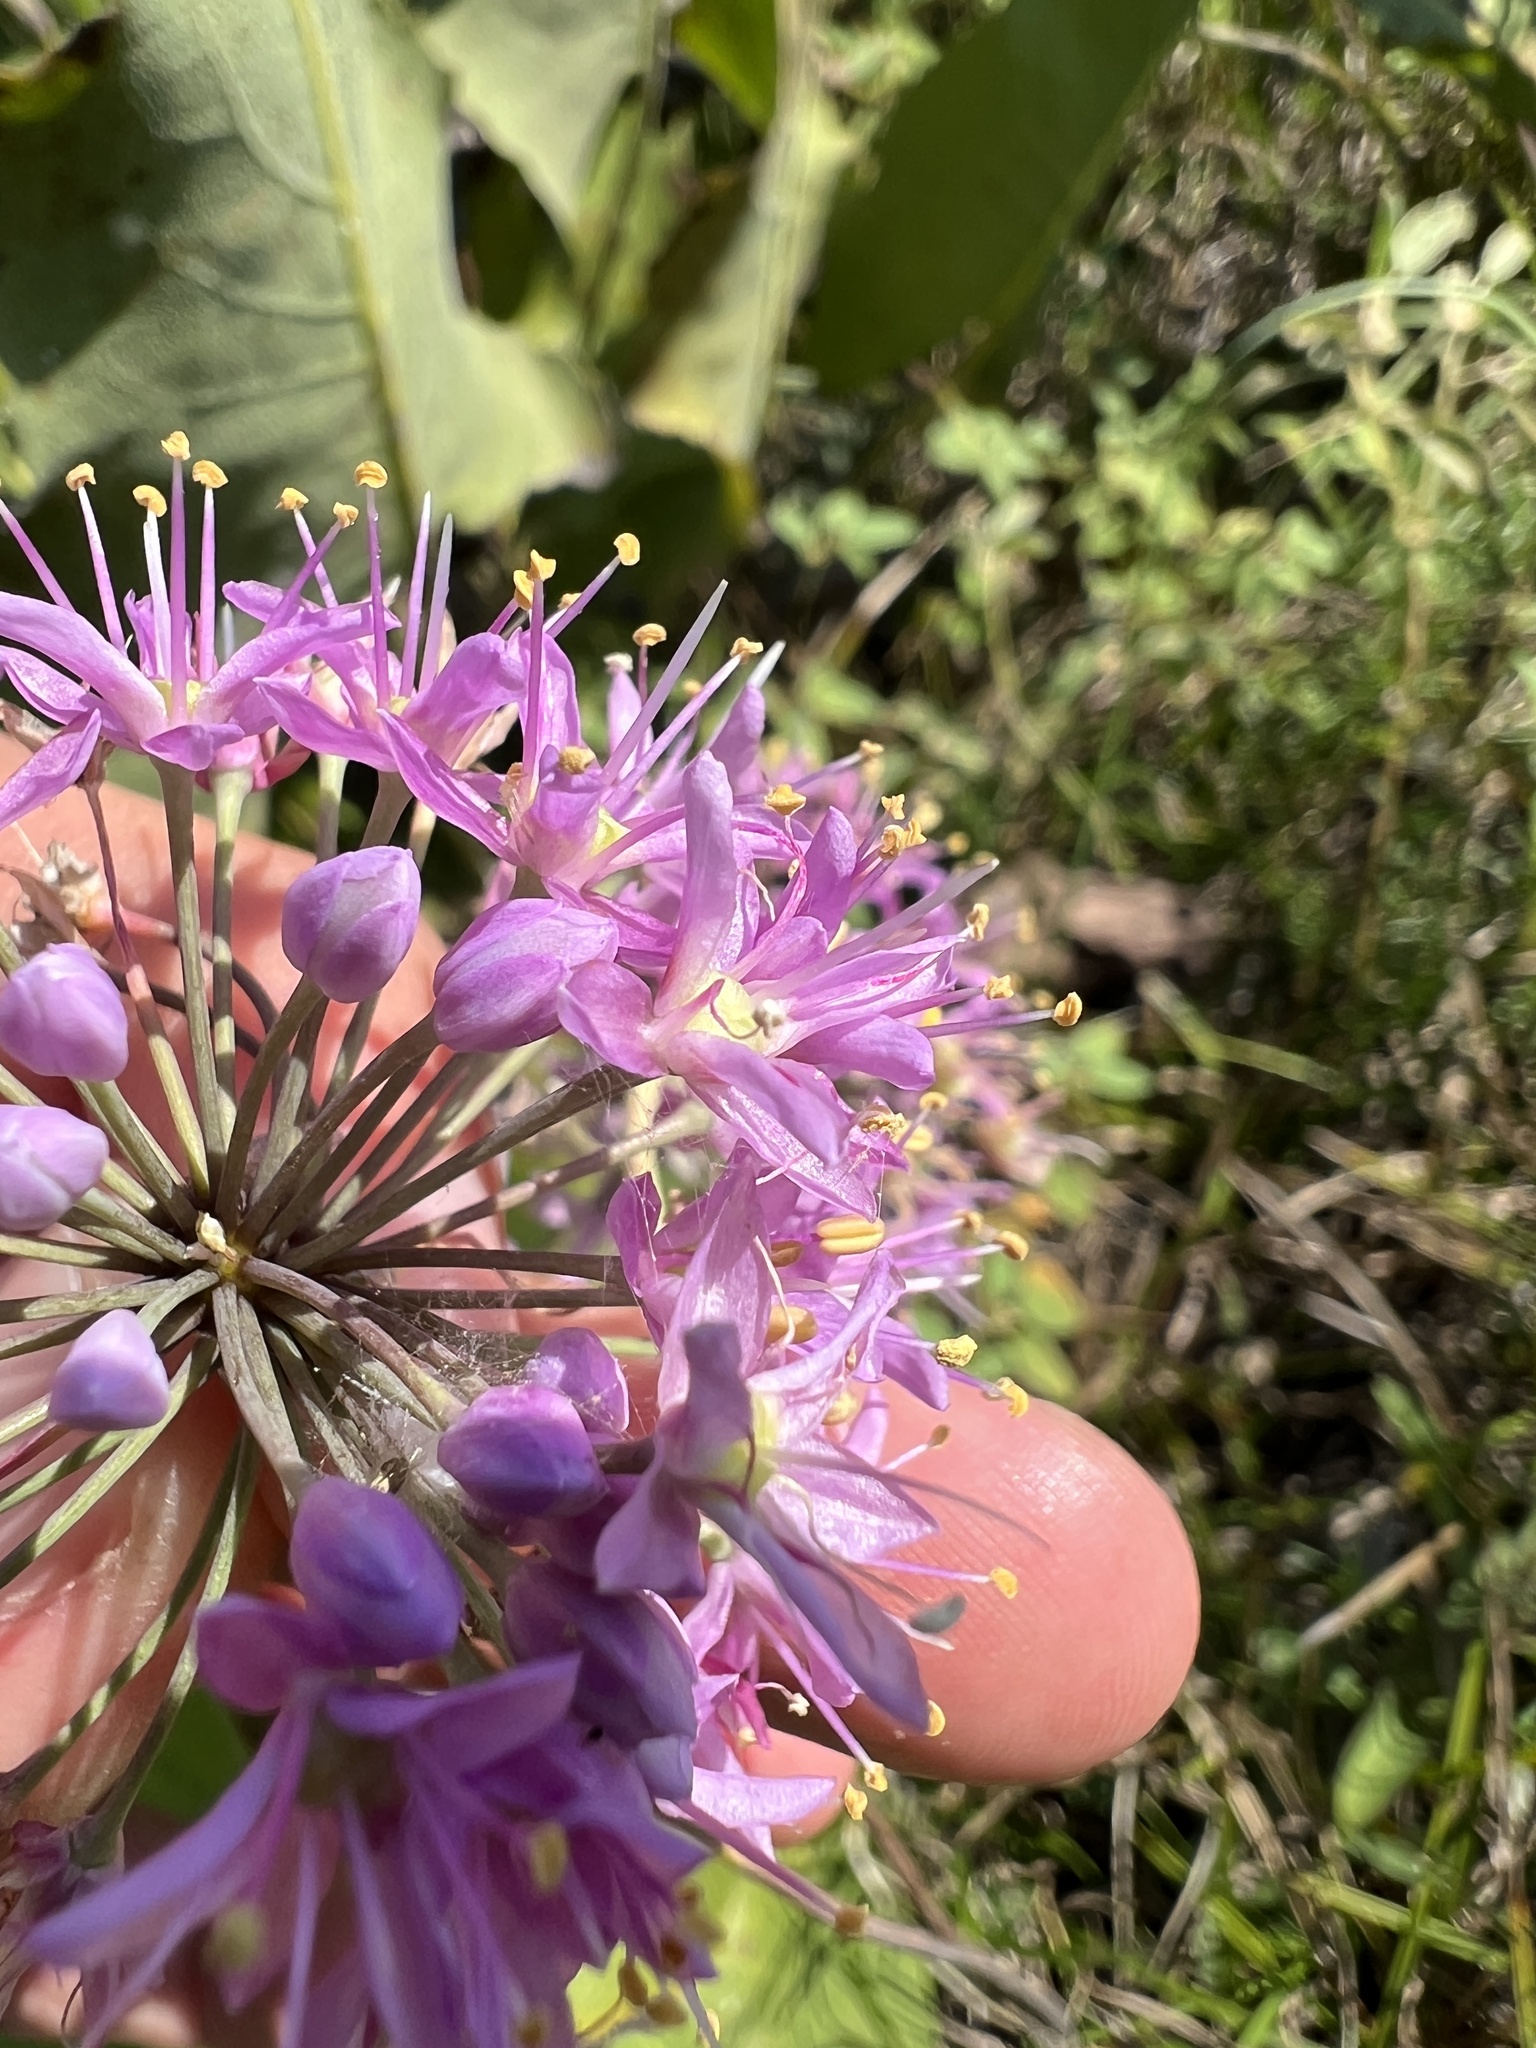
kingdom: Plantae
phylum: Tracheophyta
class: Liliopsida
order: Asparagales
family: Amaryllidaceae
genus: Allium
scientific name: Allium stellatum
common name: Autumn onion
